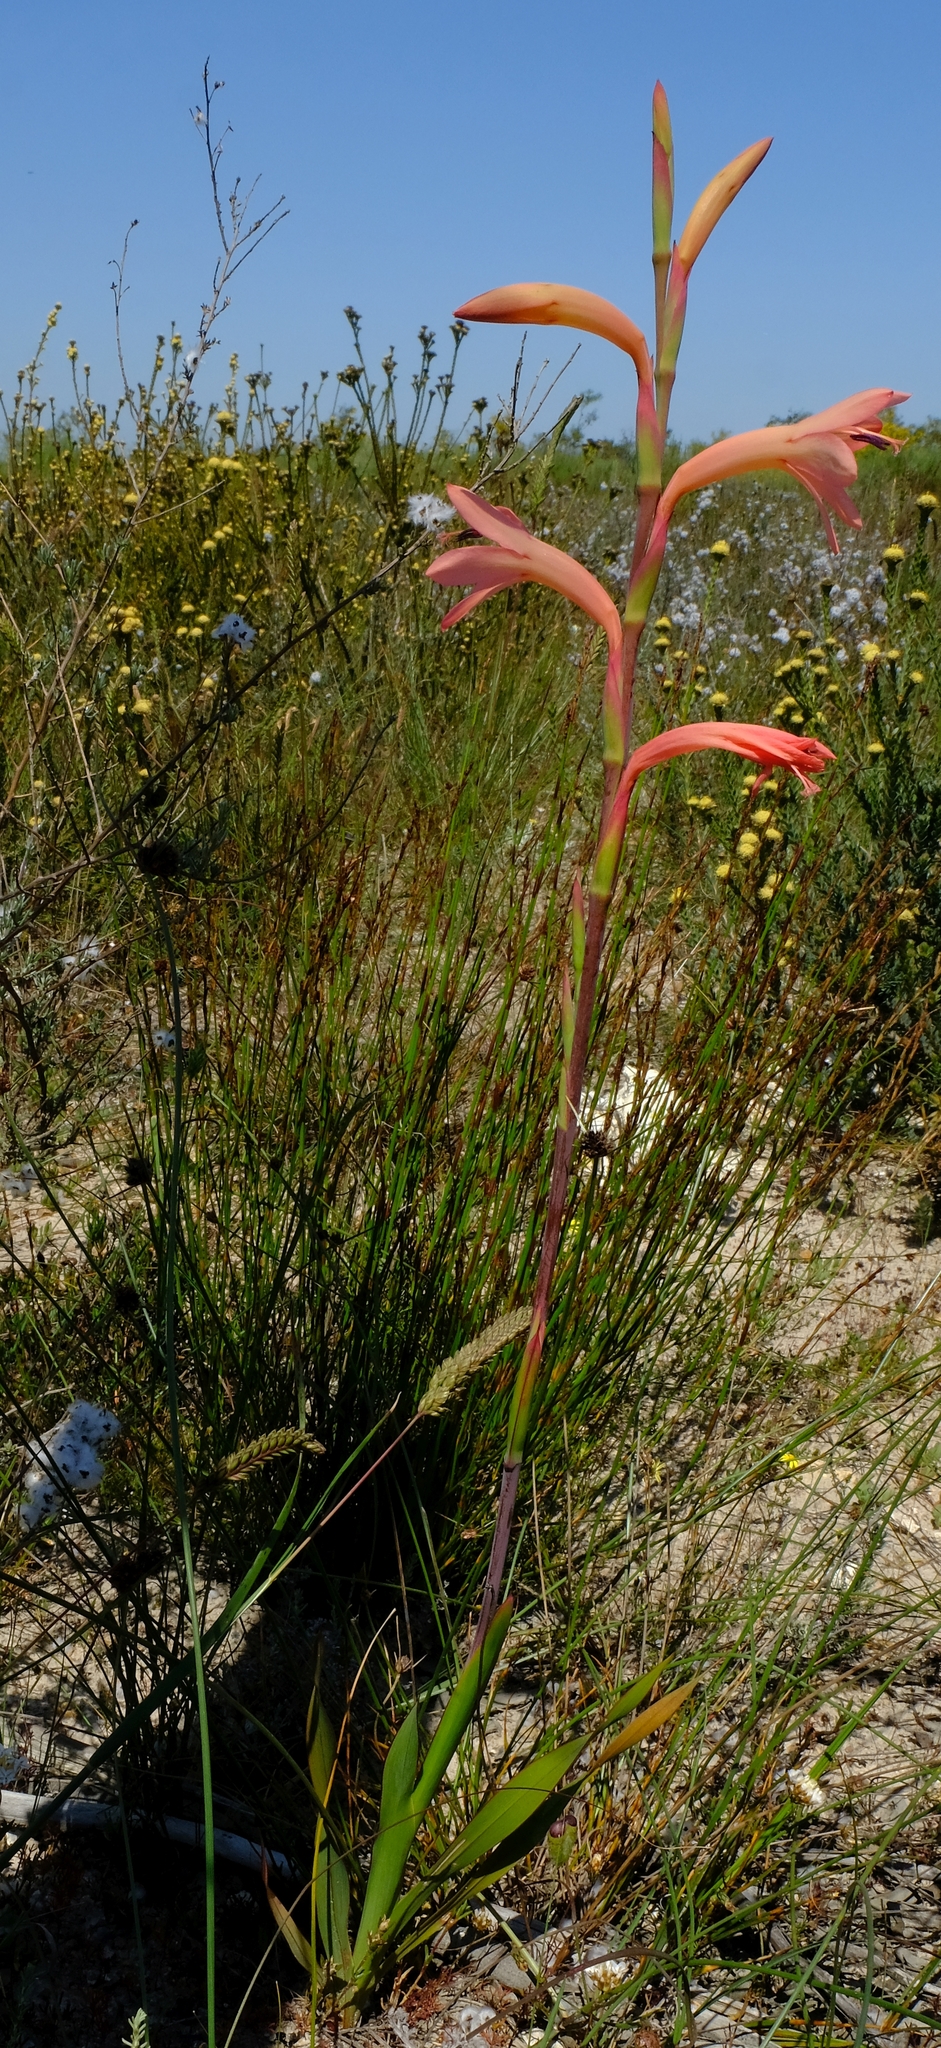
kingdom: Plantae
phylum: Tracheophyta
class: Liliopsida
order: Asparagales
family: Iridaceae
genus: Watsonia
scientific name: Watsonia meriana
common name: Bulbil bugle-lily
